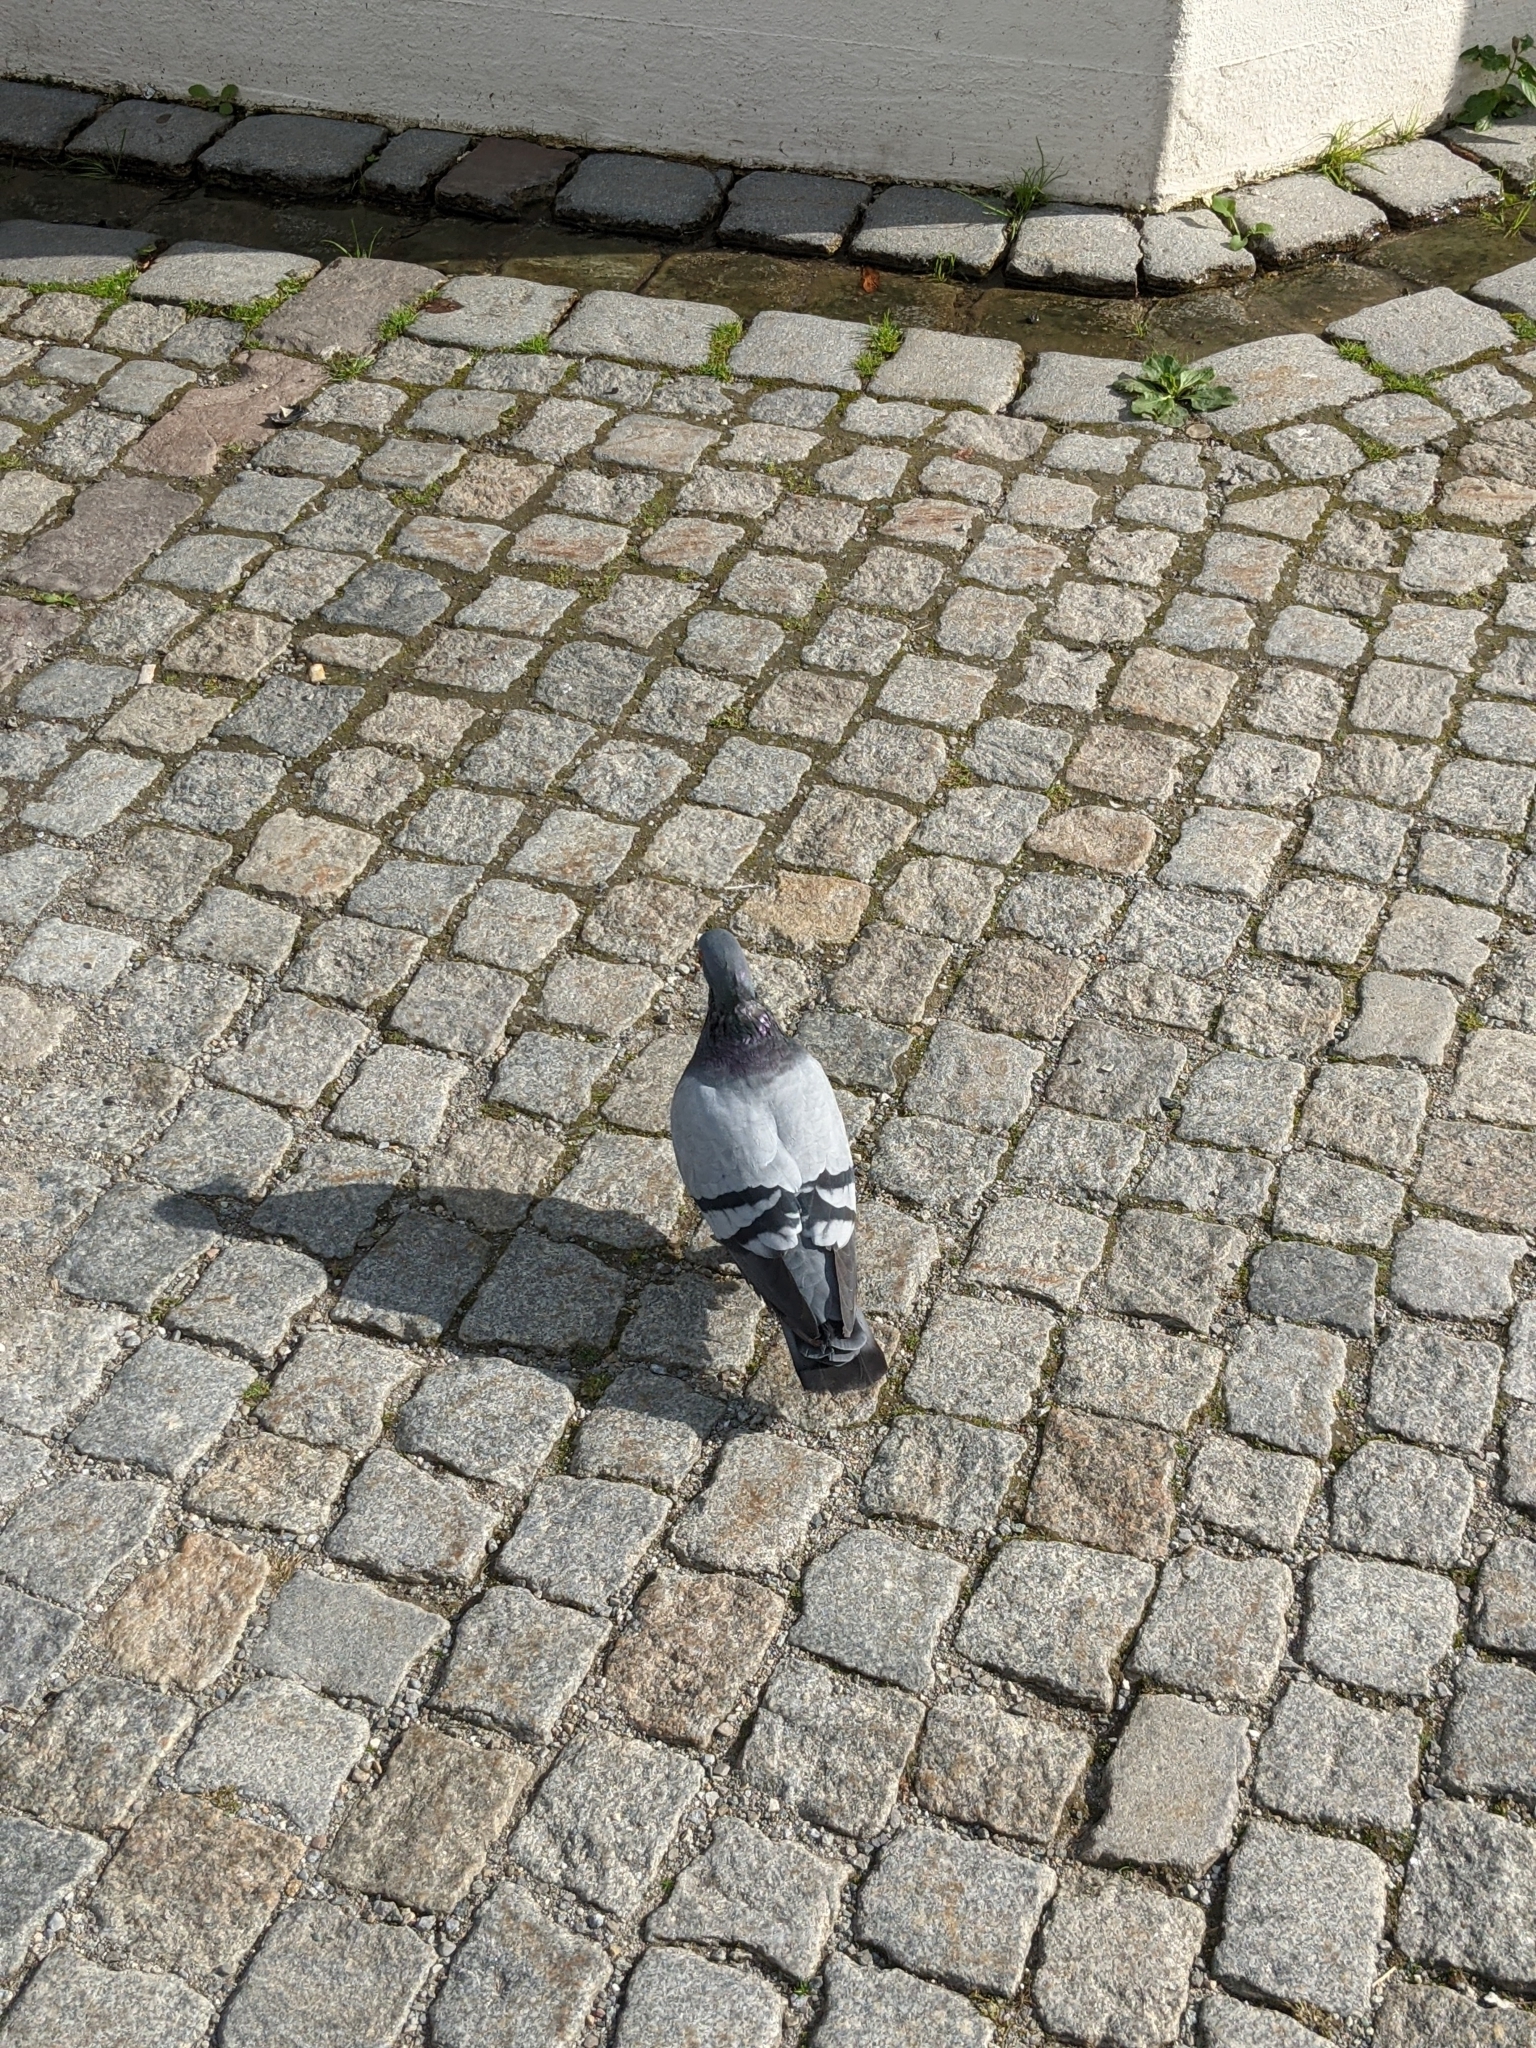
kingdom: Animalia
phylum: Chordata
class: Aves
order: Columbiformes
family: Columbidae
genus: Columba
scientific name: Columba livia
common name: Rock pigeon
